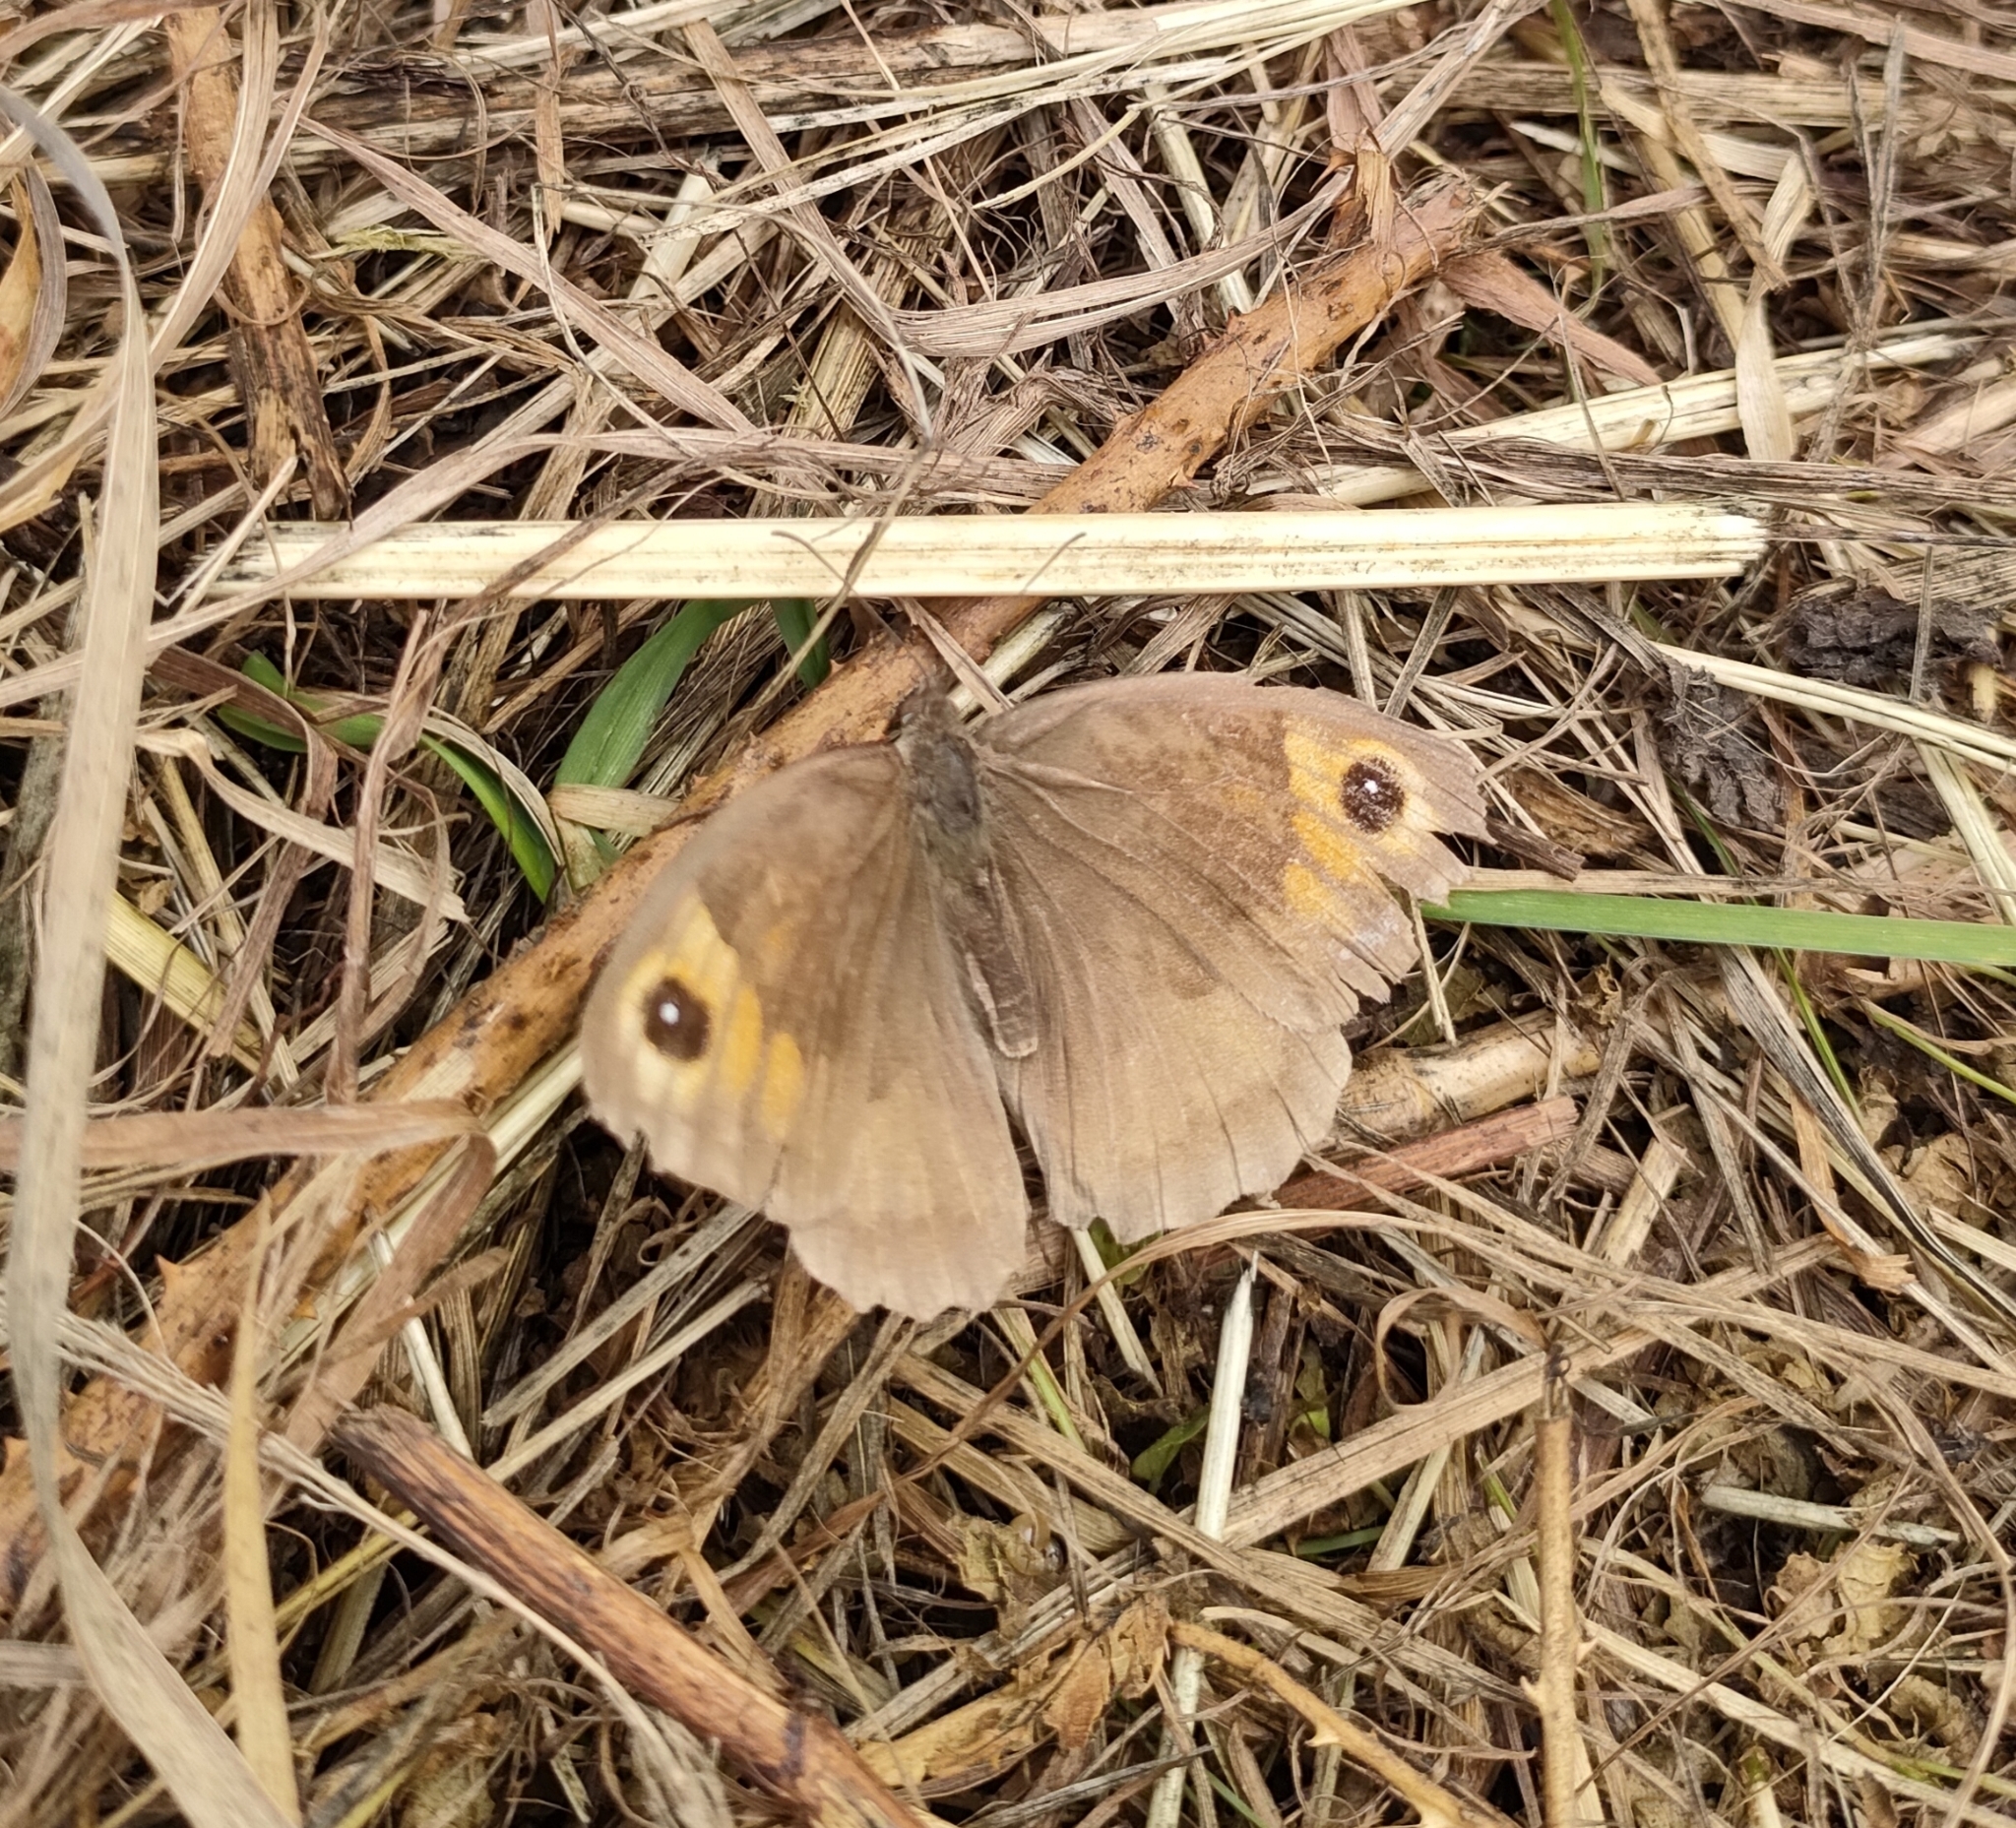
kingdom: Animalia
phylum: Arthropoda
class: Insecta
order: Lepidoptera
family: Nymphalidae
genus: Maniola
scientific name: Maniola jurtina
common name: Meadow brown
